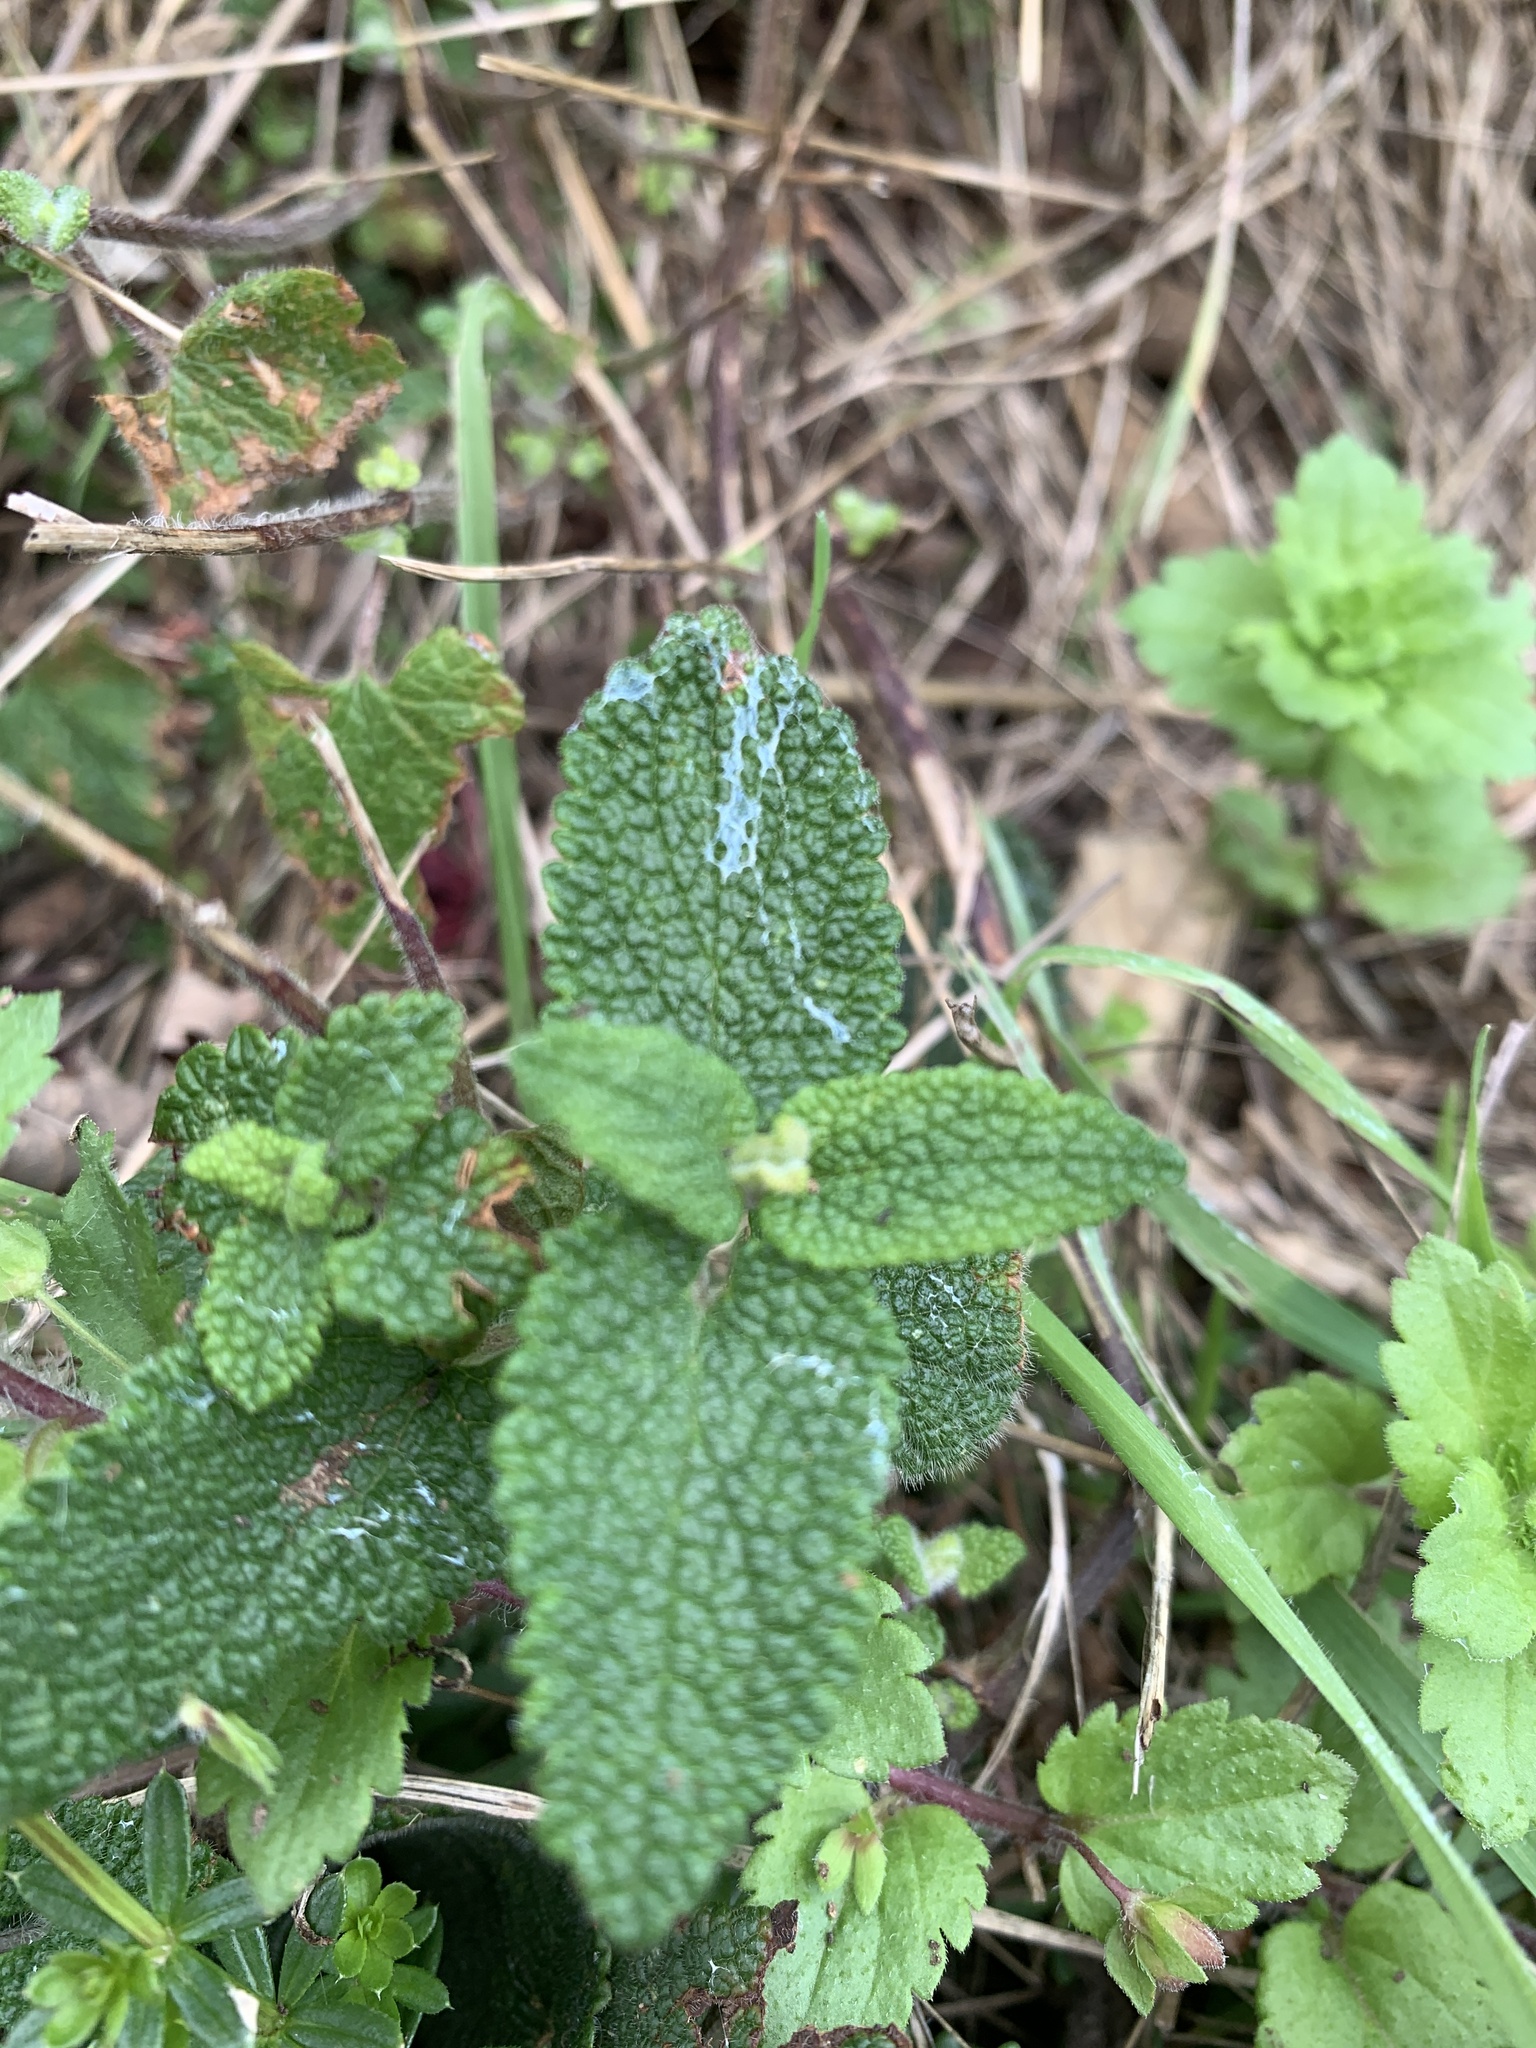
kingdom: Plantae
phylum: Tracheophyta
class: Magnoliopsida
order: Lamiales
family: Lamiaceae
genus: Teucrium
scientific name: Teucrium scorodonia
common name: Woodland germander
